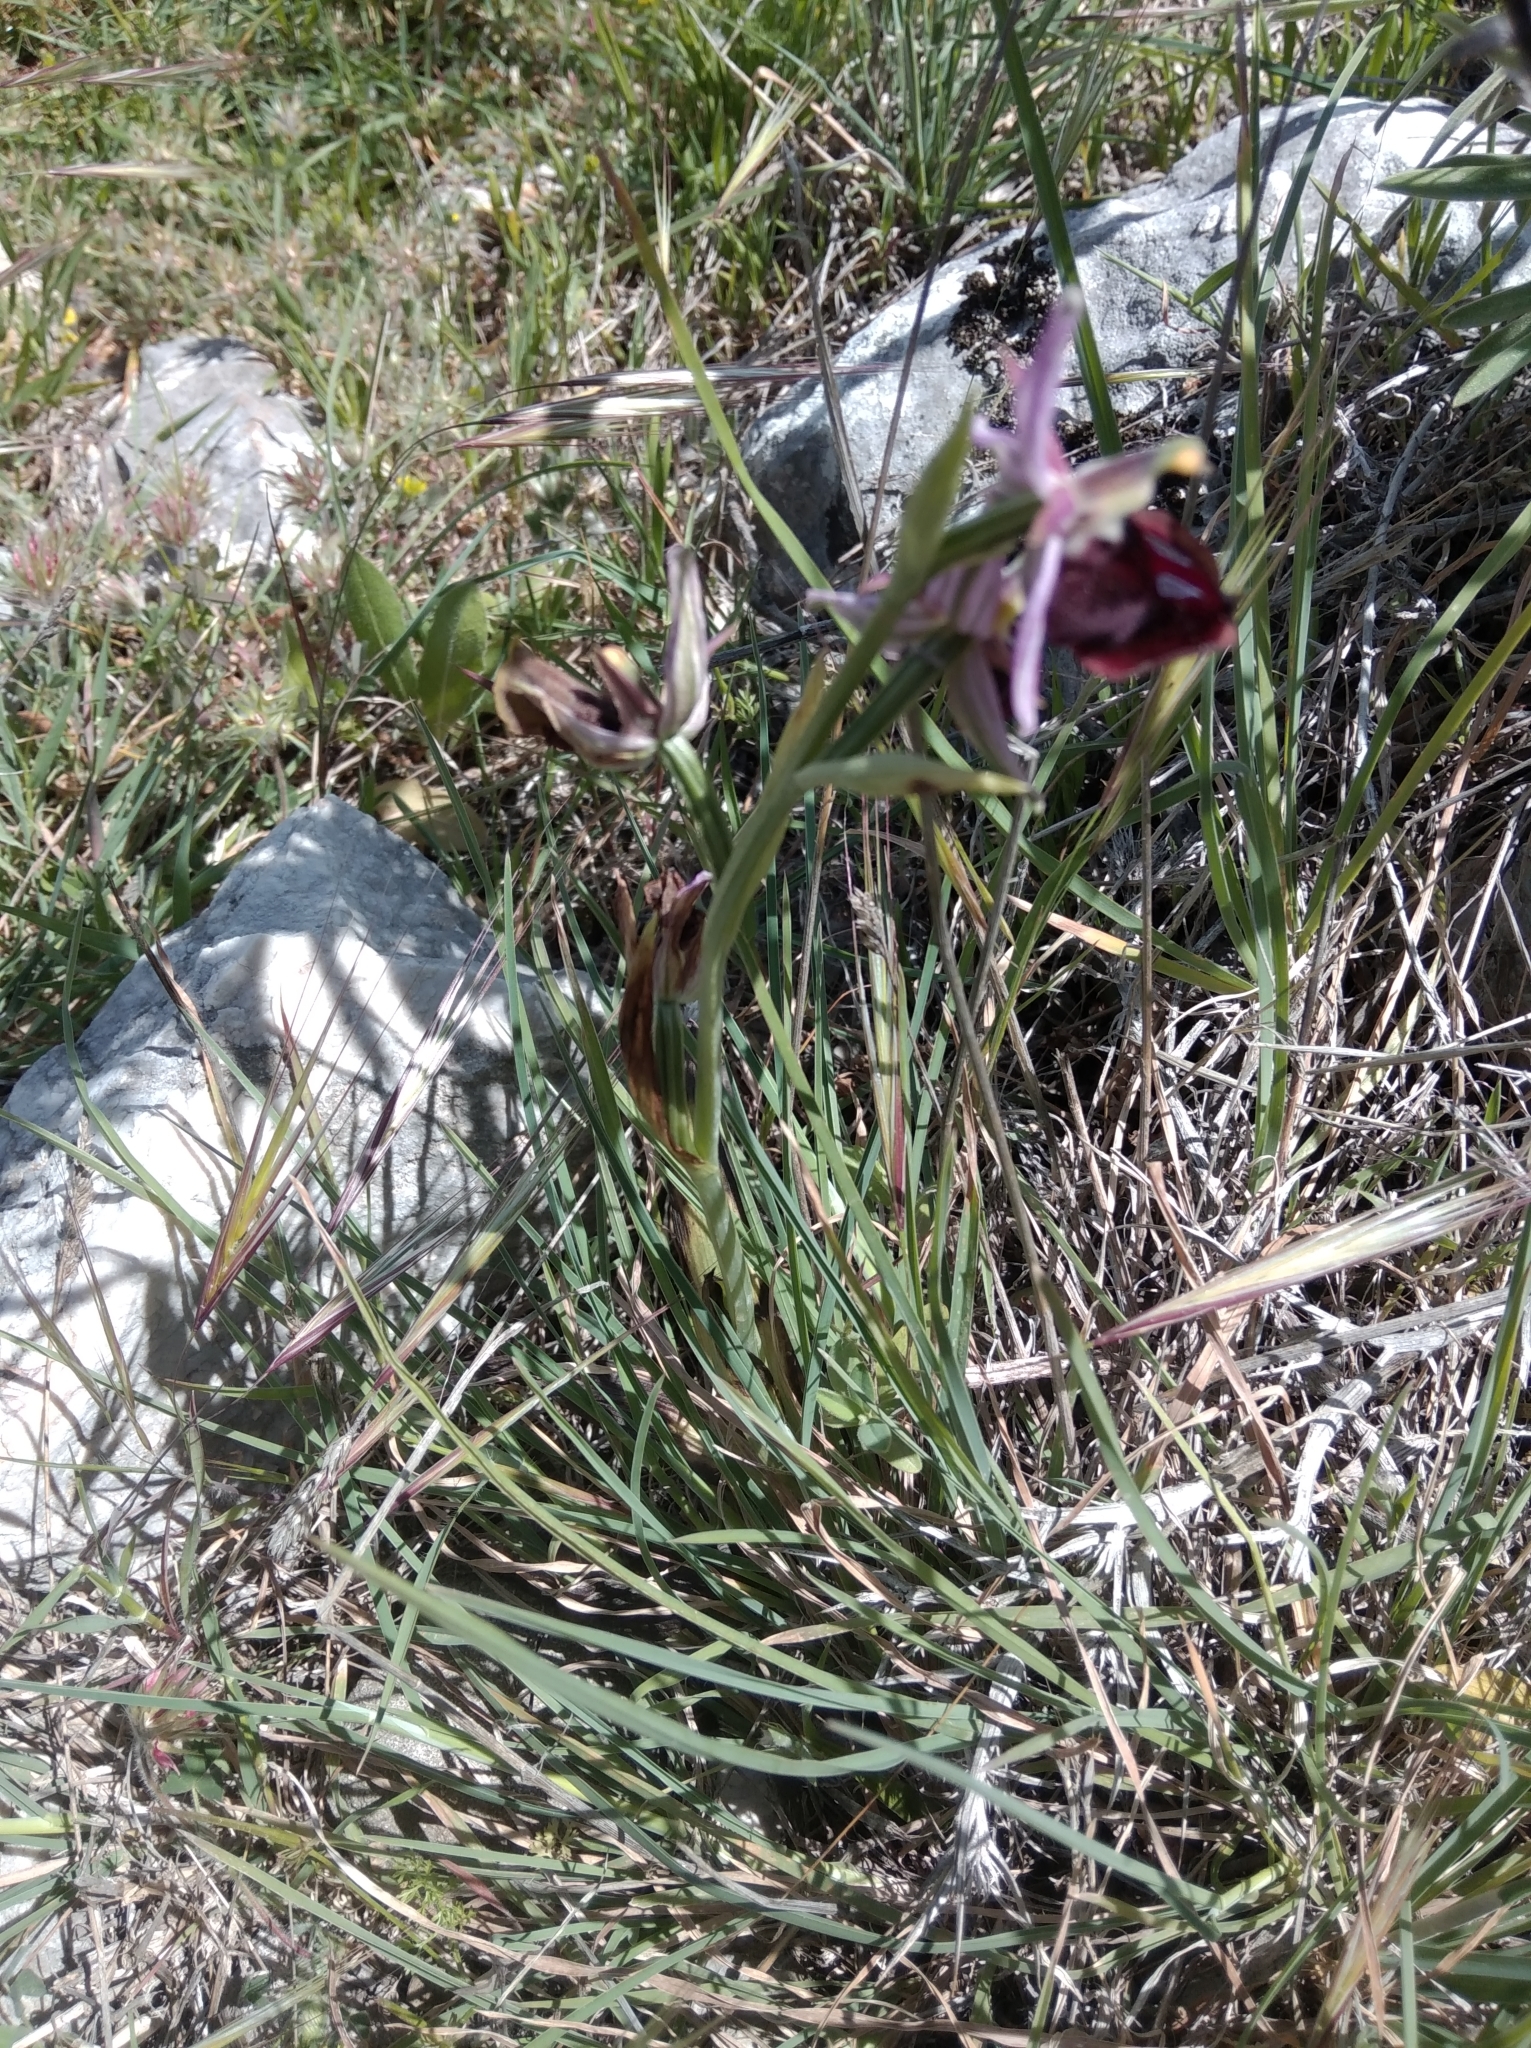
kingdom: Plantae
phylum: Tracheophyta
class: Liliopsida
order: Asparagales
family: Orchidaceae
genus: Ophrys
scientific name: Ophrys ferrum-equinum
